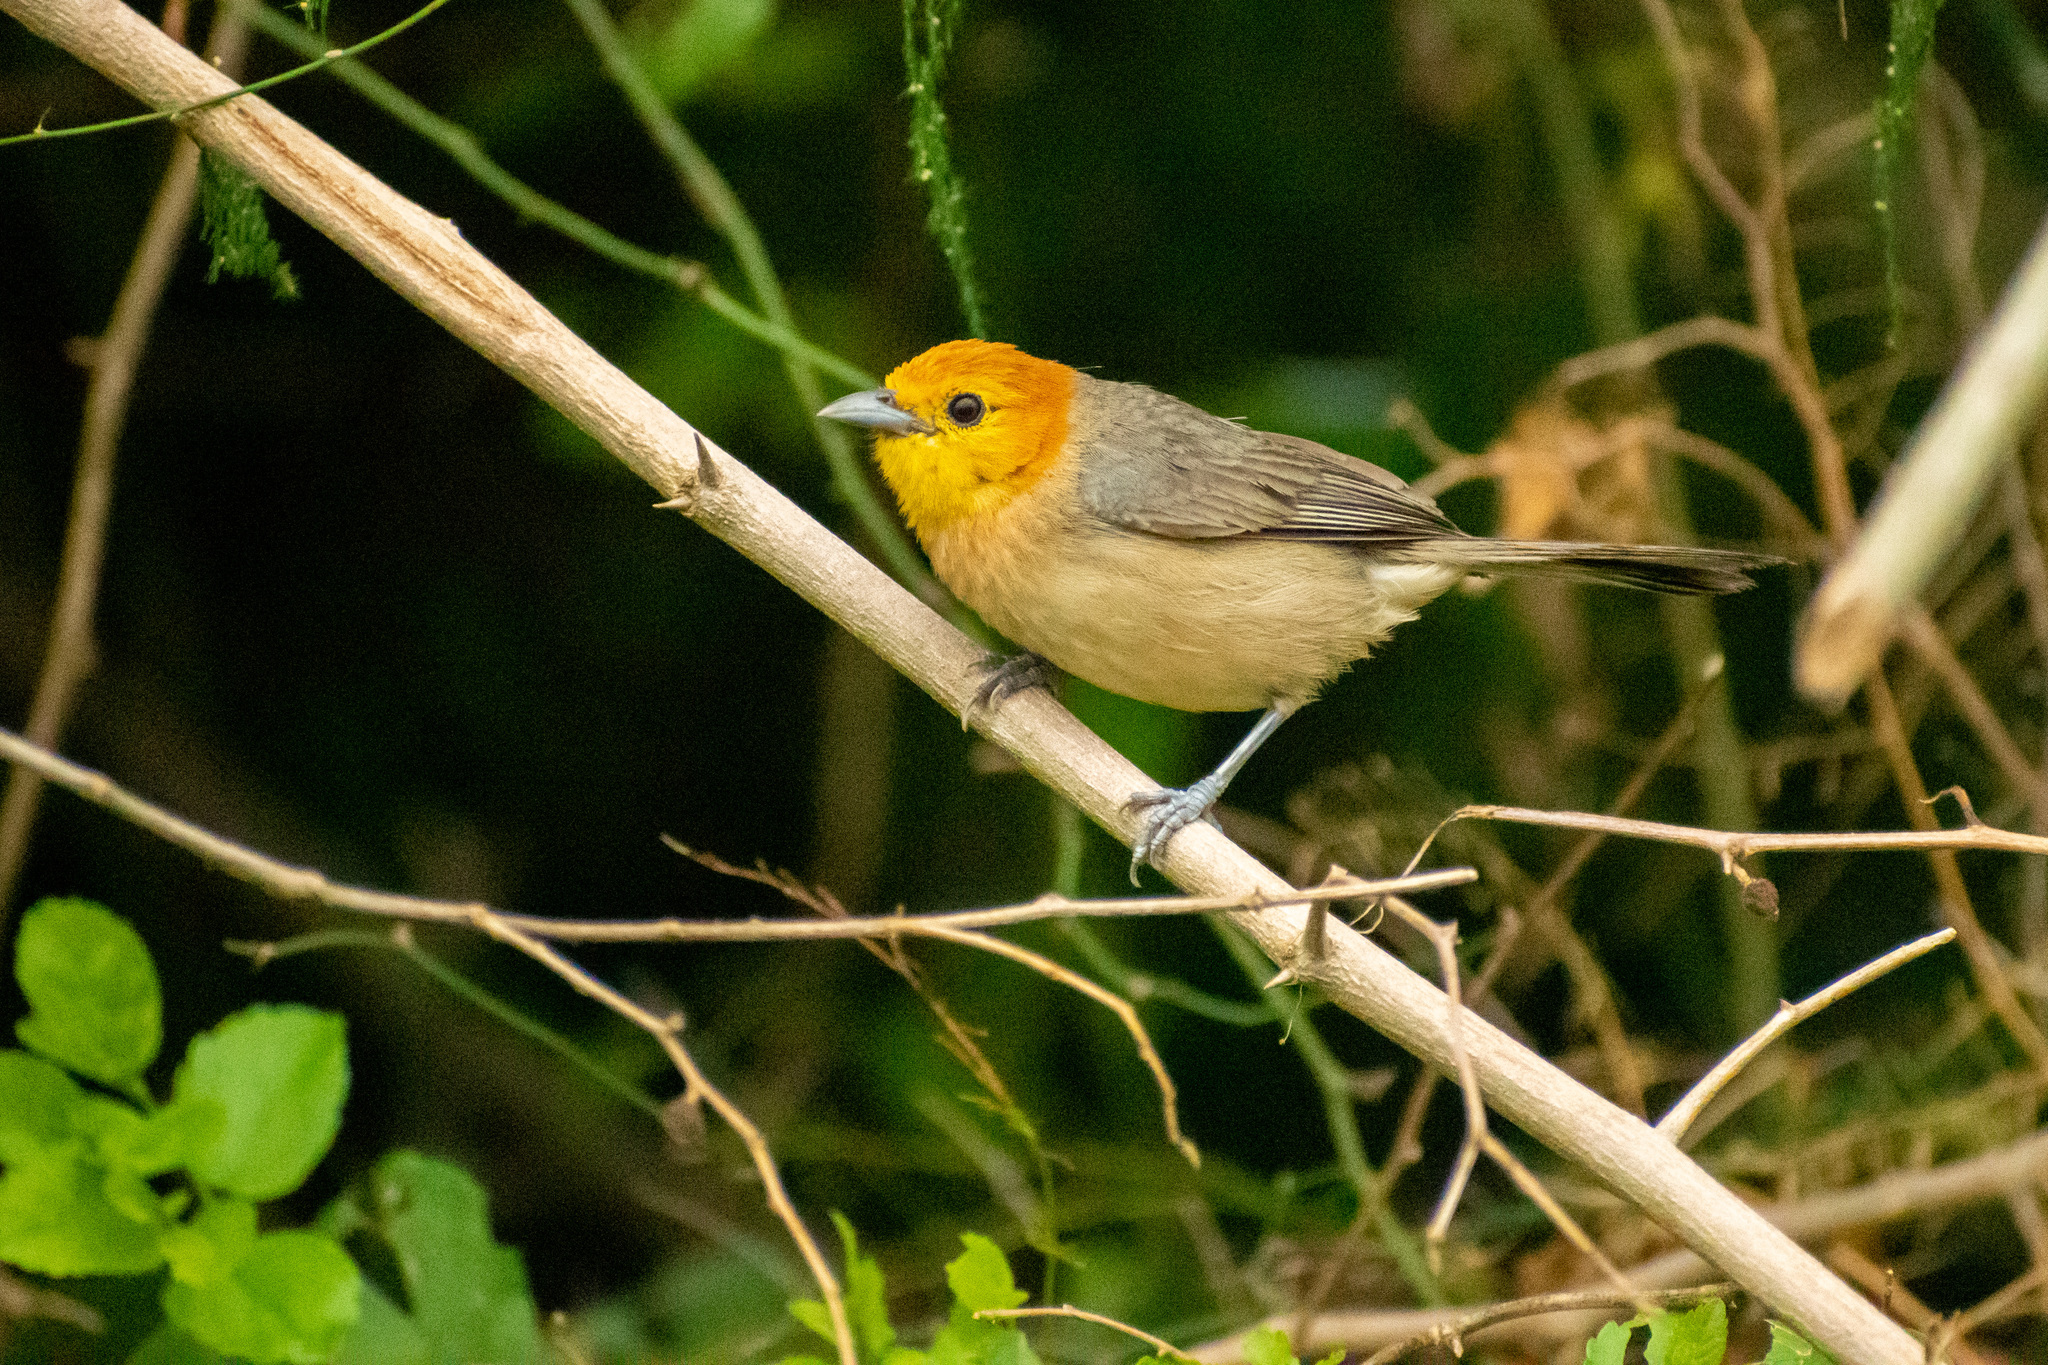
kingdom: Animalia
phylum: Chordata
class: Aves
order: Passeriformes
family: Thraupidae
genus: Thlypopsis
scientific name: Thlypopsis sordida
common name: Orange-headed tanager
